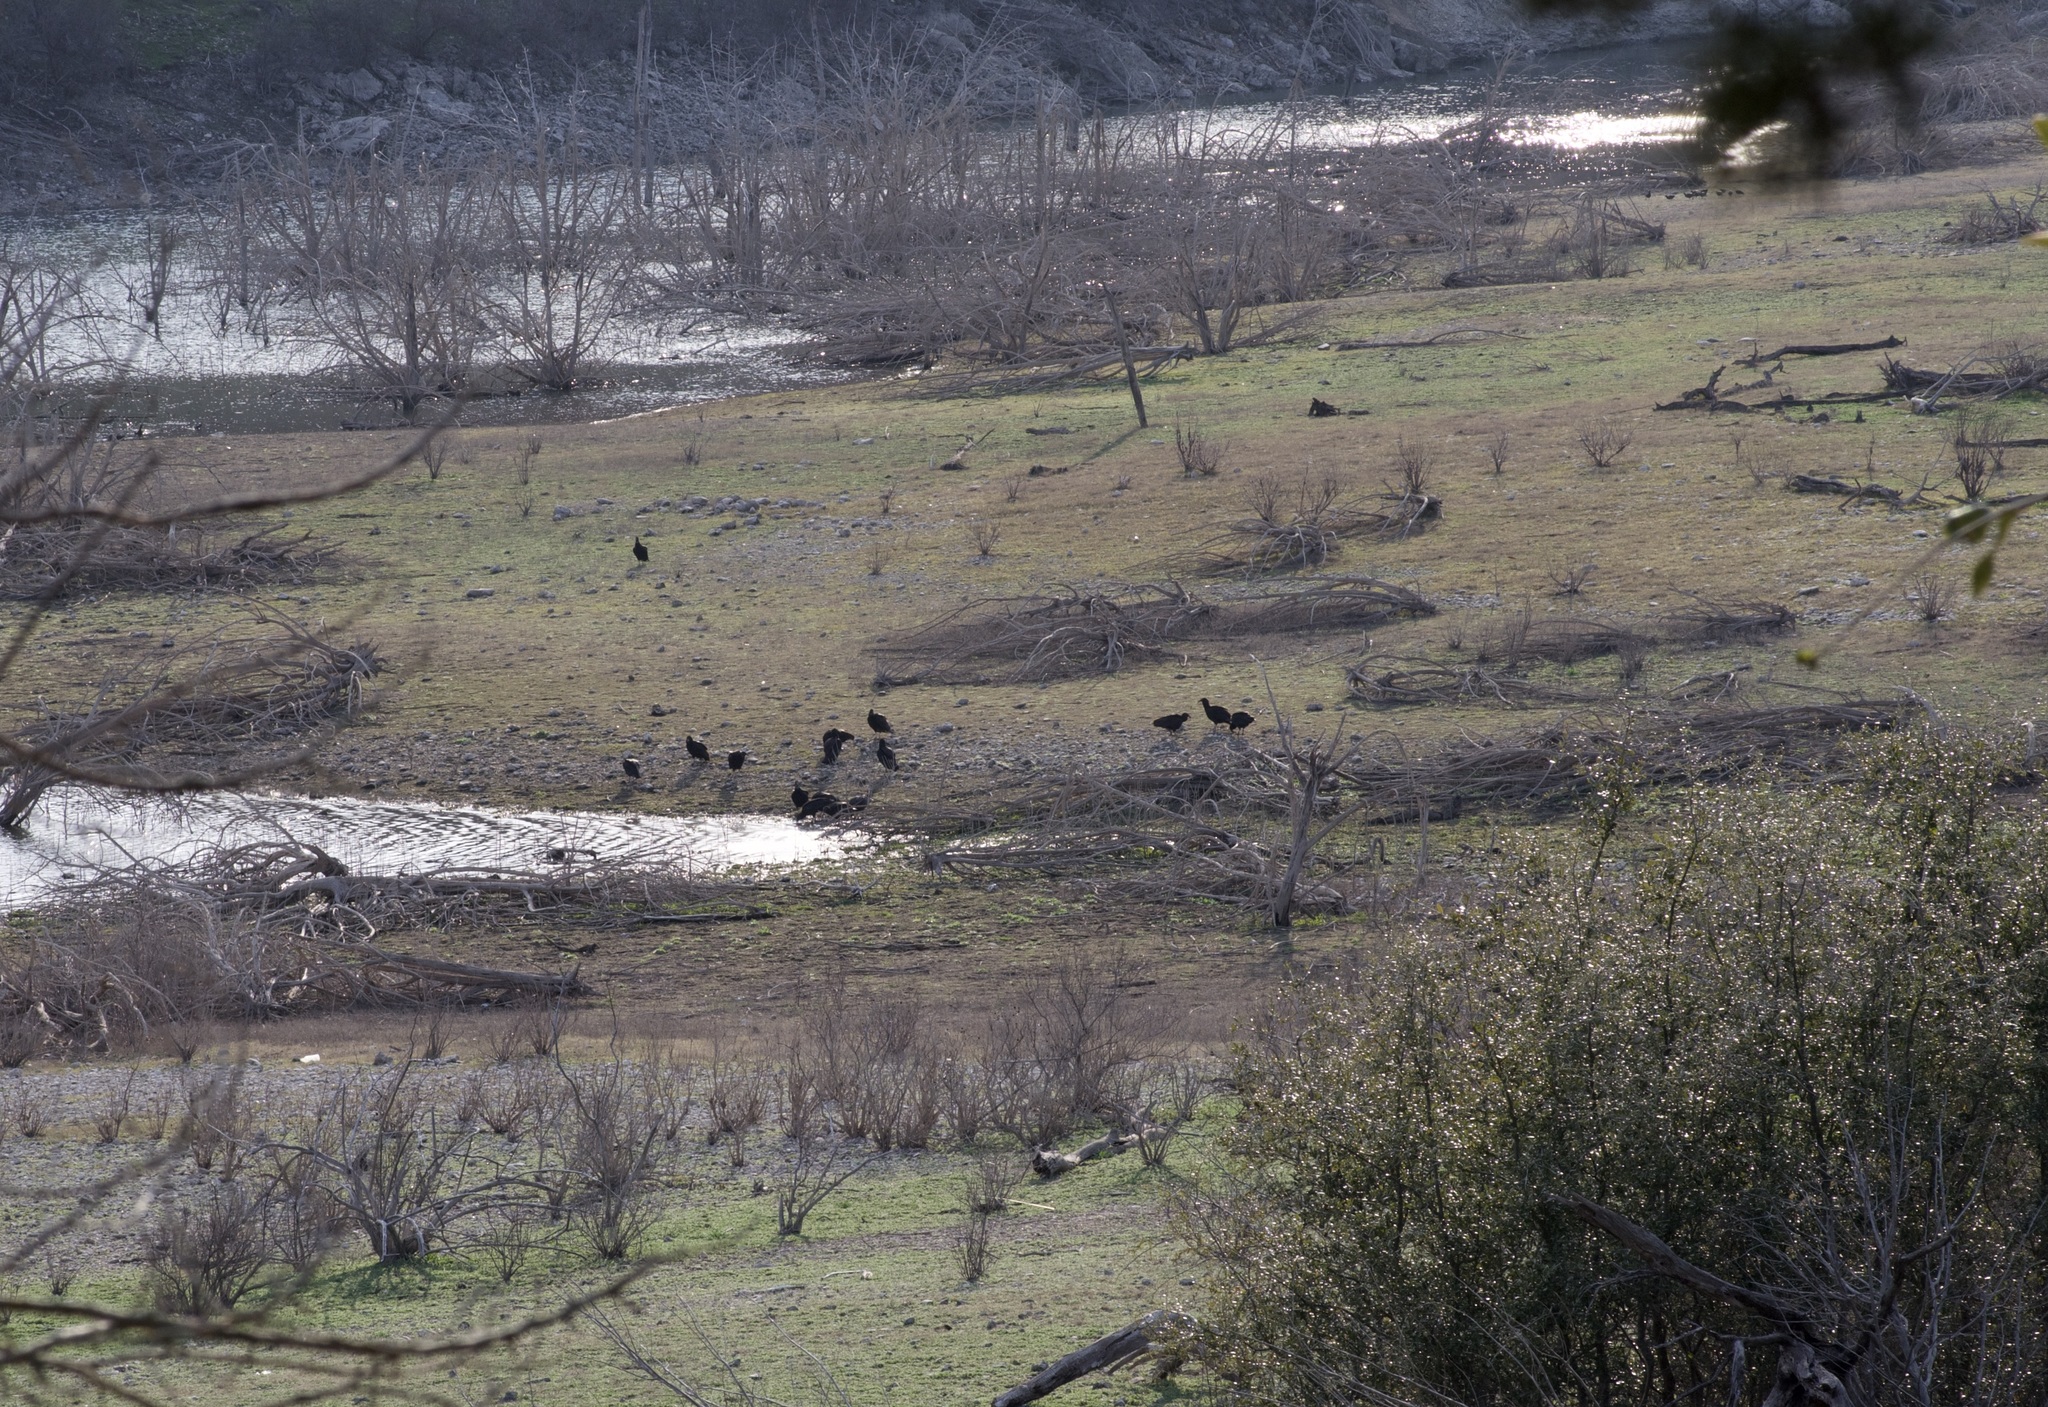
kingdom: Animalia
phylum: Chordata
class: Aves
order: Accipitriformes
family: Cathartidae
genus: Coragyps
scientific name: Coragyps atratus
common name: Black vulture
